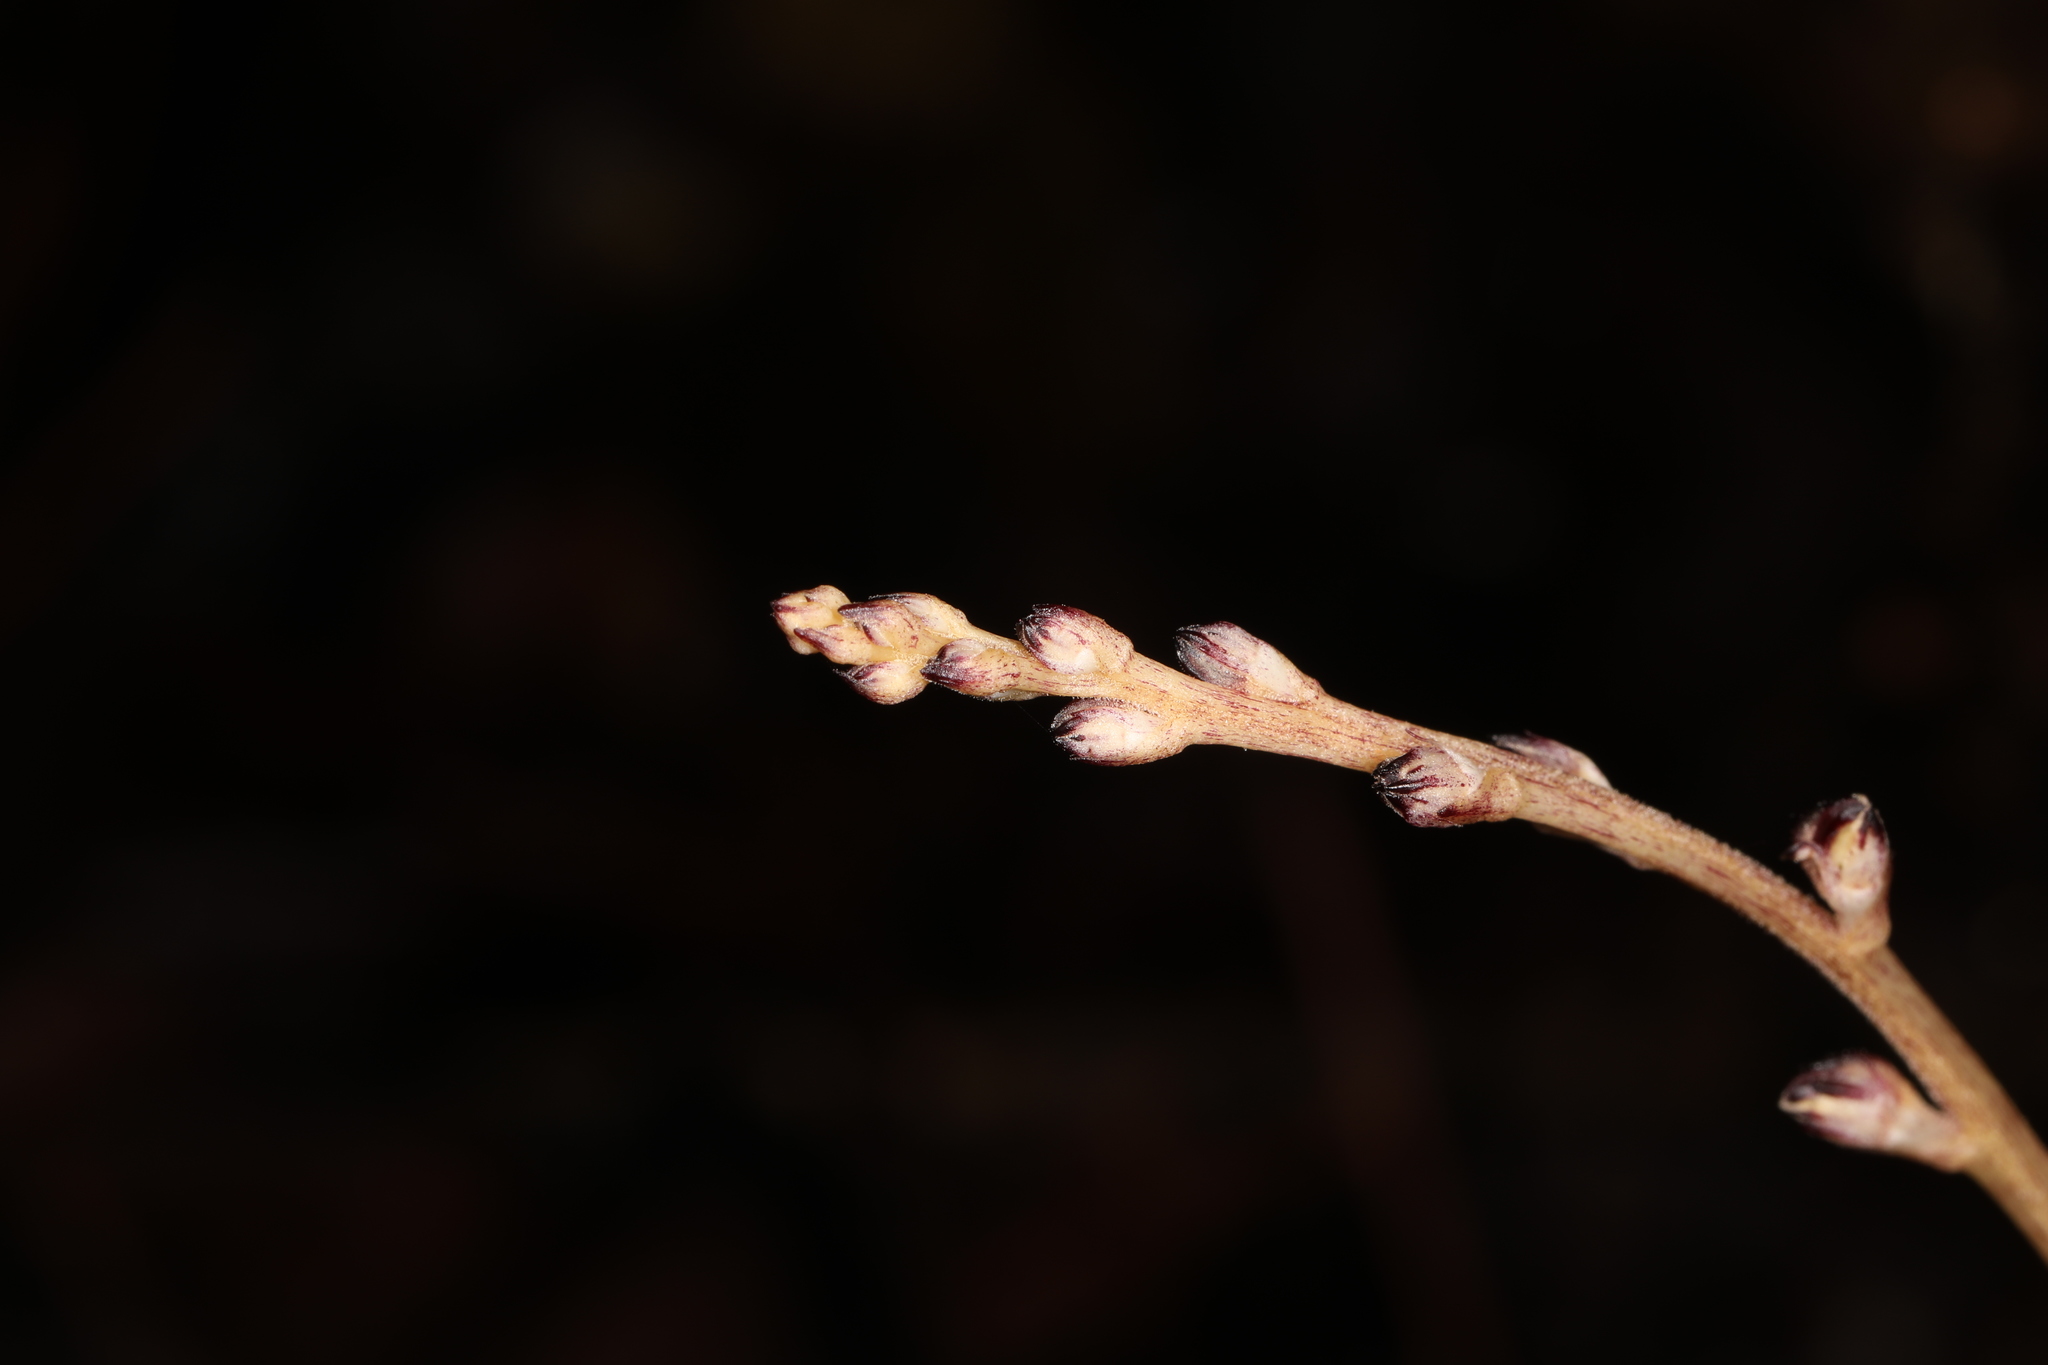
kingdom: Plantae
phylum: Tracheophyta
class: Magnoliopsida
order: Lamiales
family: Orobanchaceae
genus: Epifagus
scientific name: Epifagus virginiana
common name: Beechdrops
